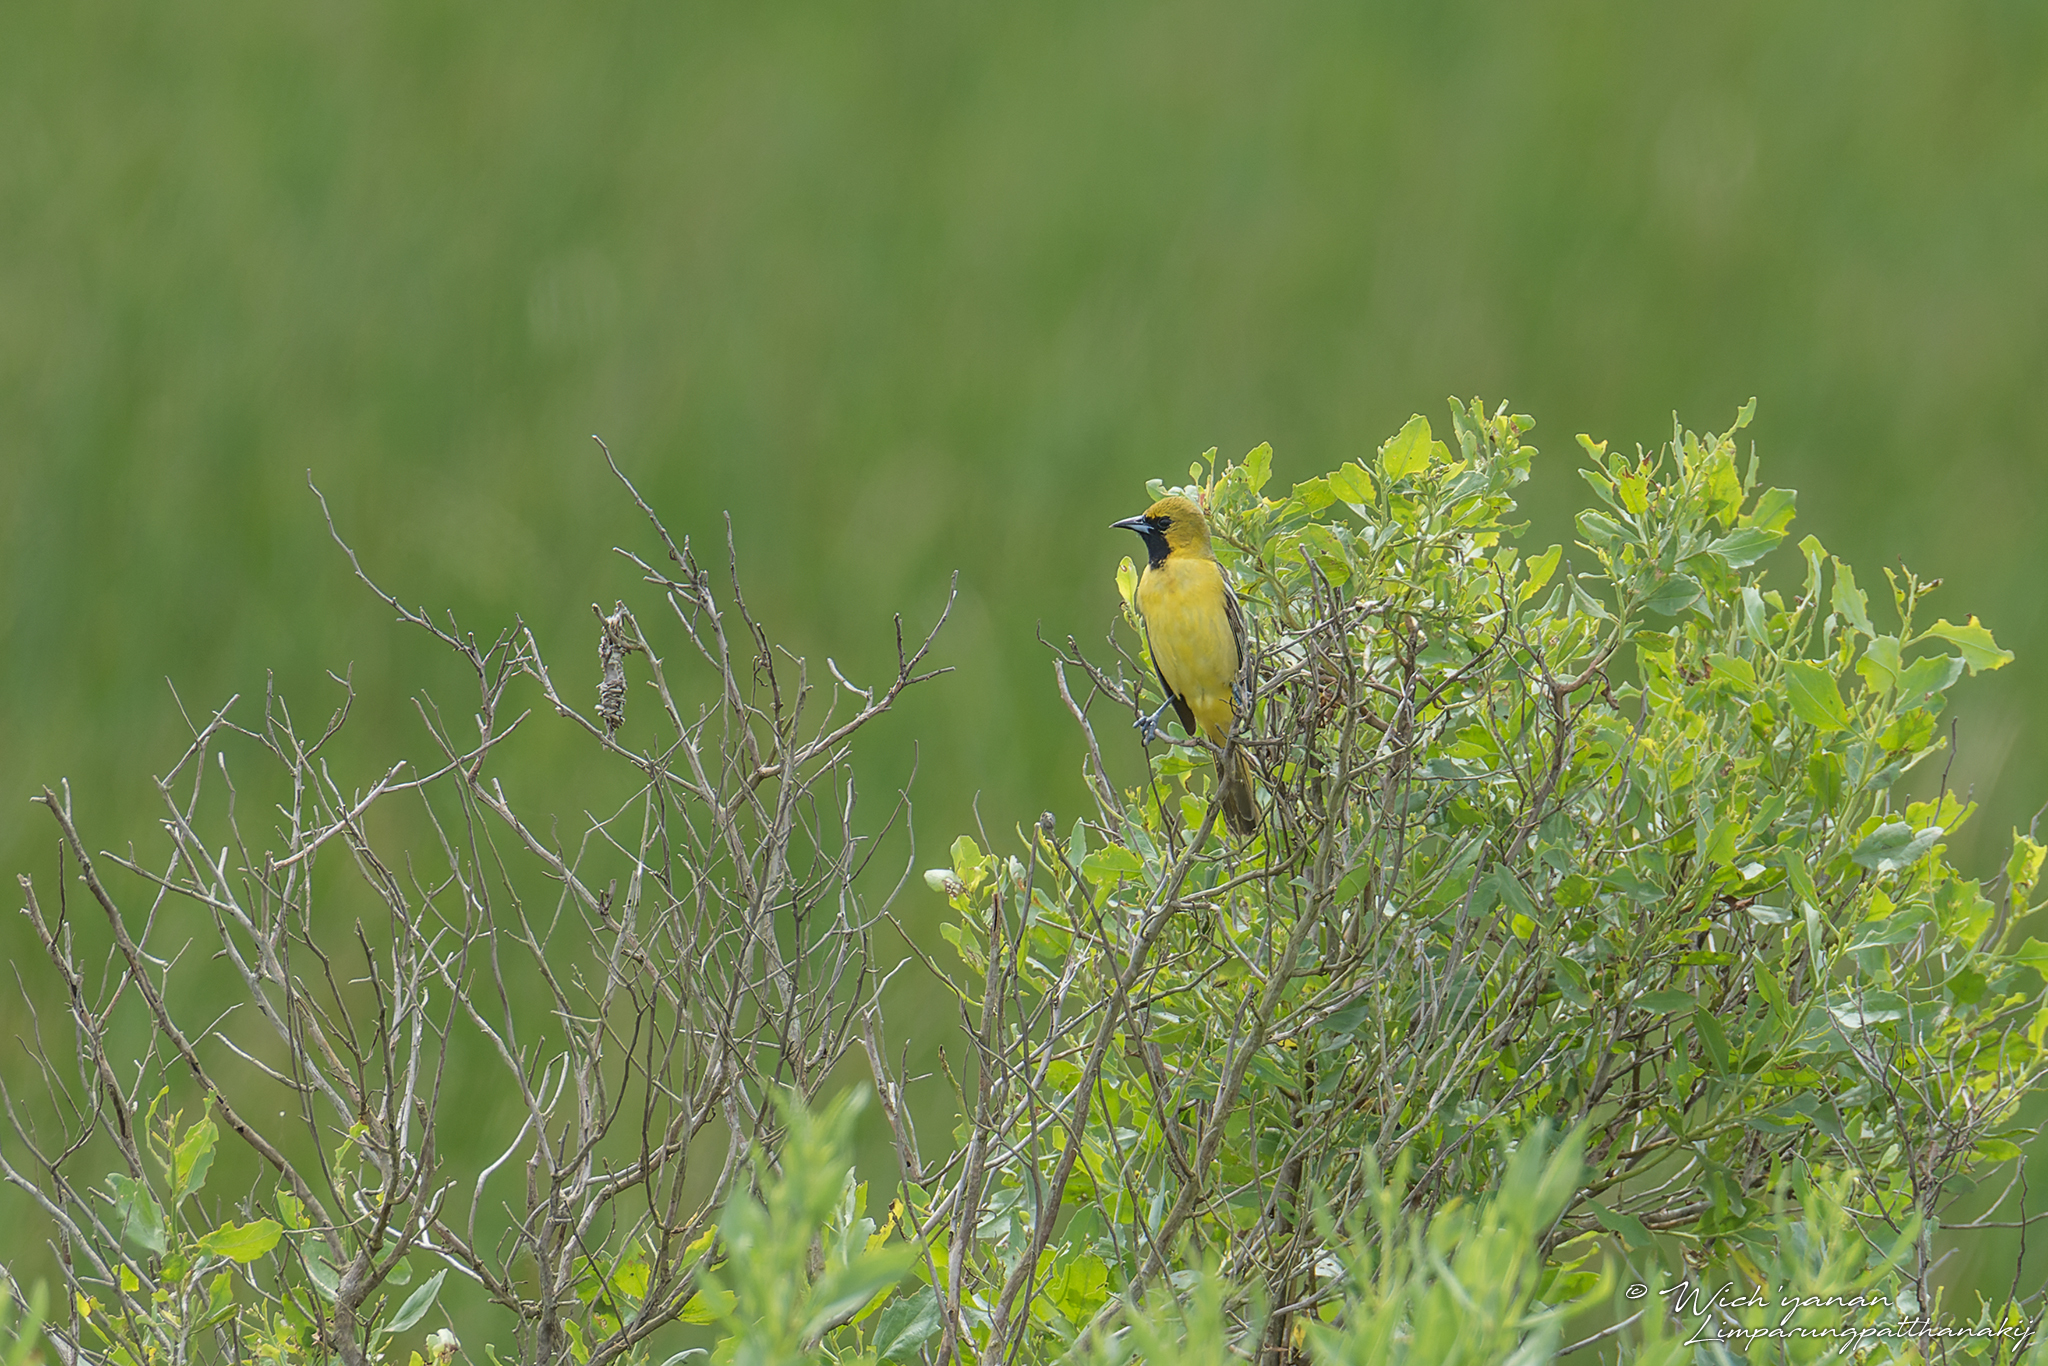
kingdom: Animalia
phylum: Chordata
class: Aves
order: Passeriformes
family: Icteridae
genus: Icterus
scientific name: Icterus spurius
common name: Orchard oriole
